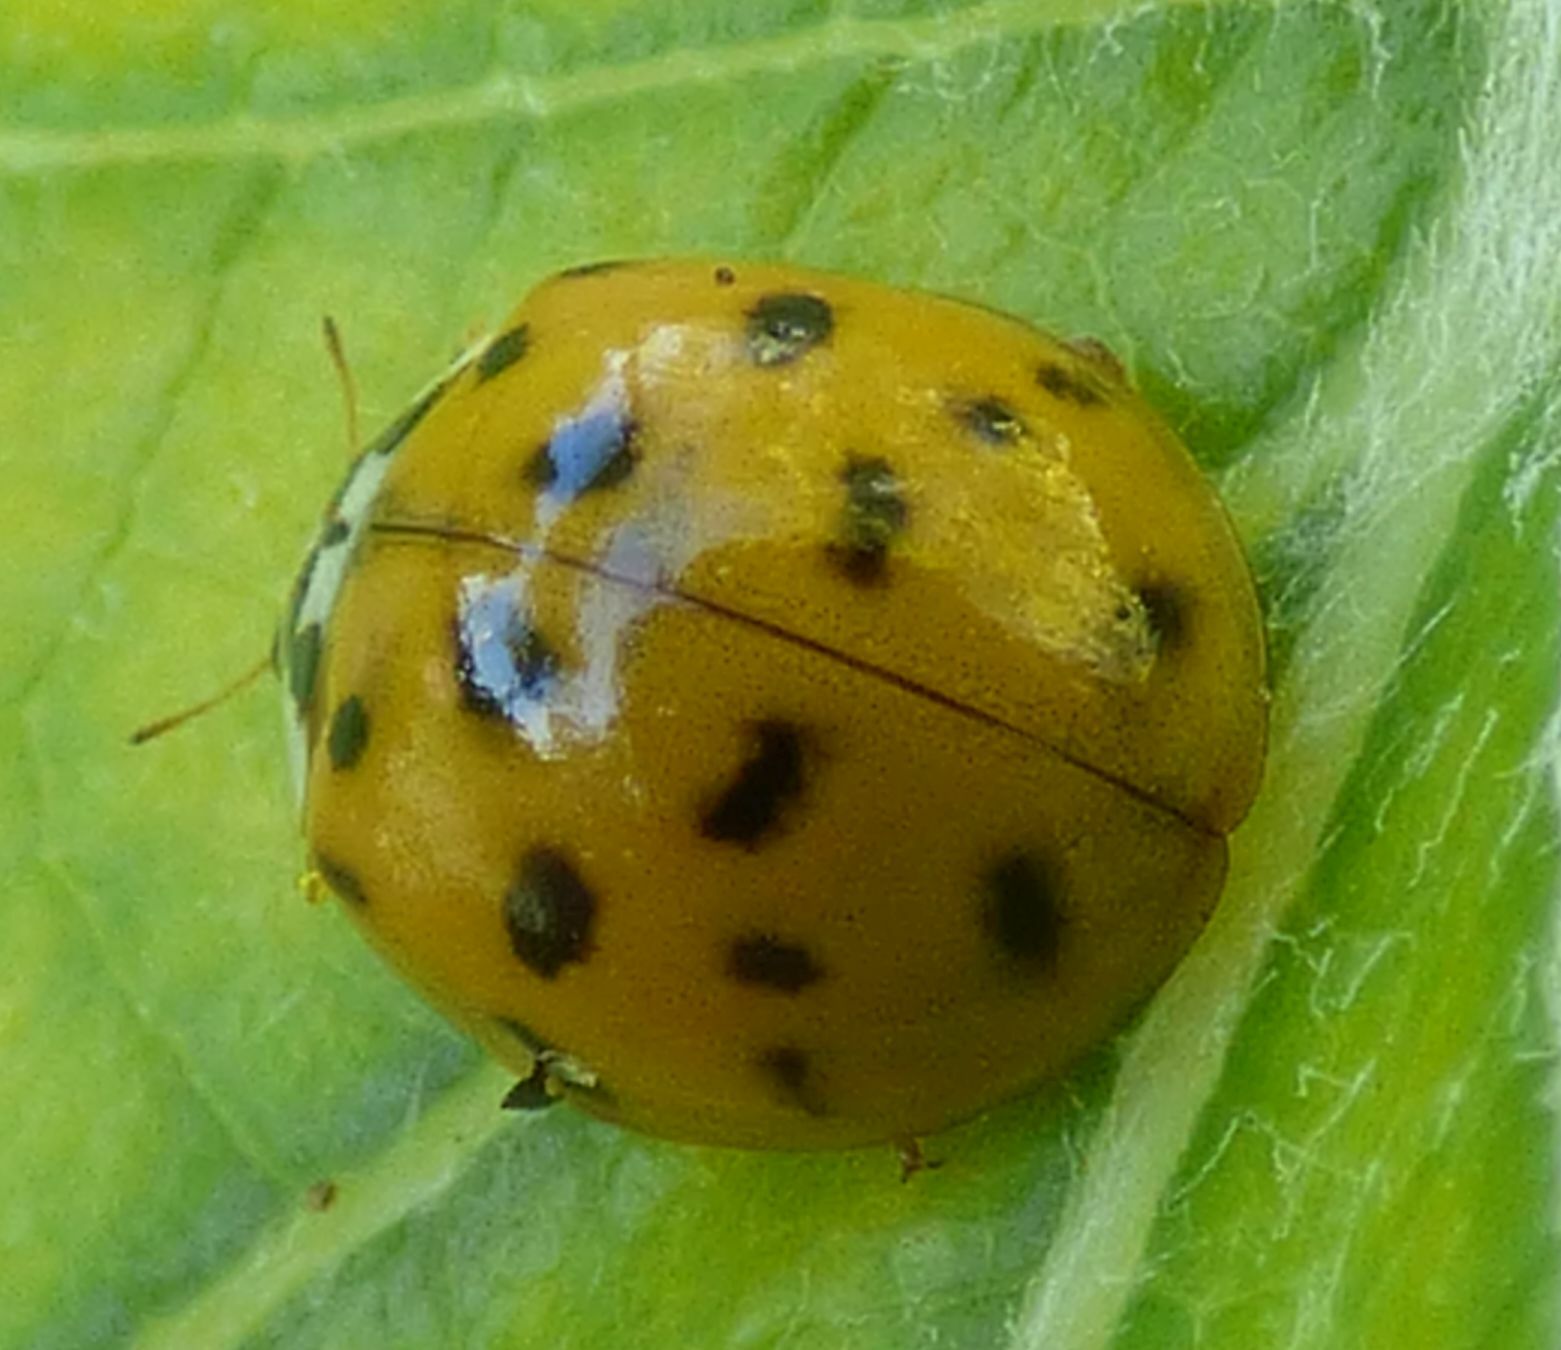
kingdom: Animalia
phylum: Arthropoda
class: Insecta
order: Coleoptera
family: Coccinellidae
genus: Harmonia
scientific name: Harmonia axyridis
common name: Harlequin ladybird
